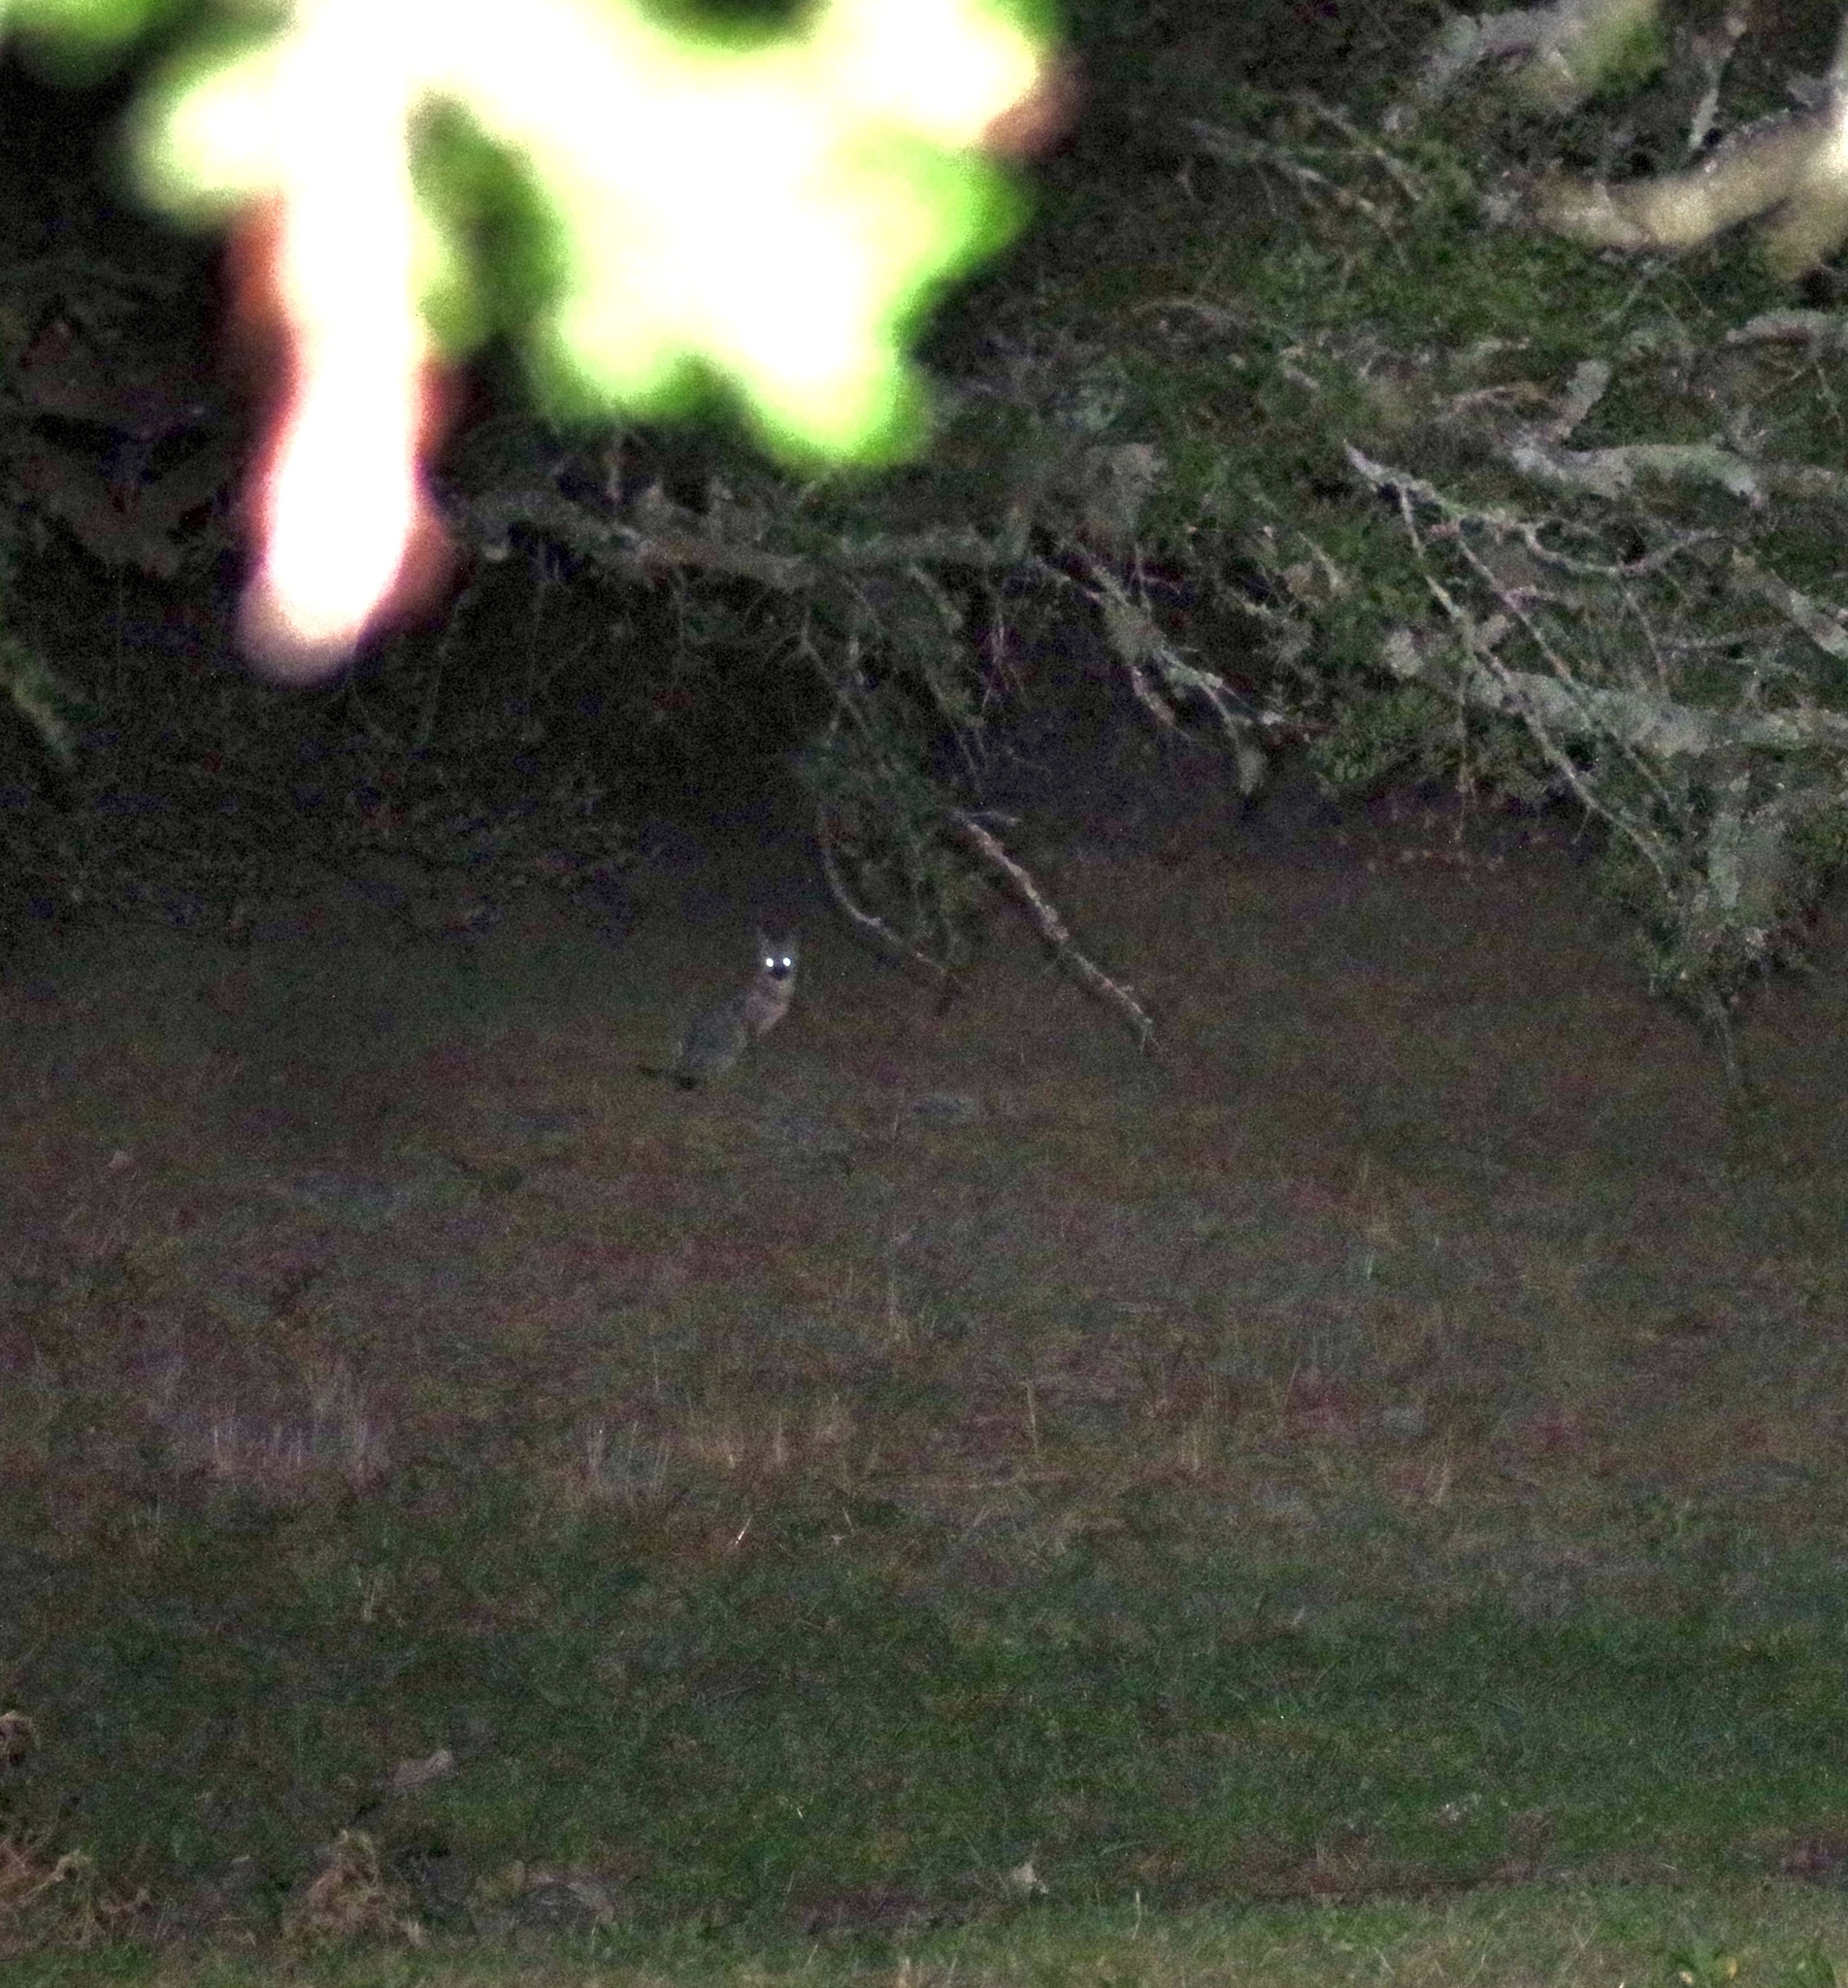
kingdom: Animalia
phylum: Chordata
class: Mammalia
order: Carnivora
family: Canidae
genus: Urocyon
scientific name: Urocyon cinereoargenteus
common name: Gray fox
